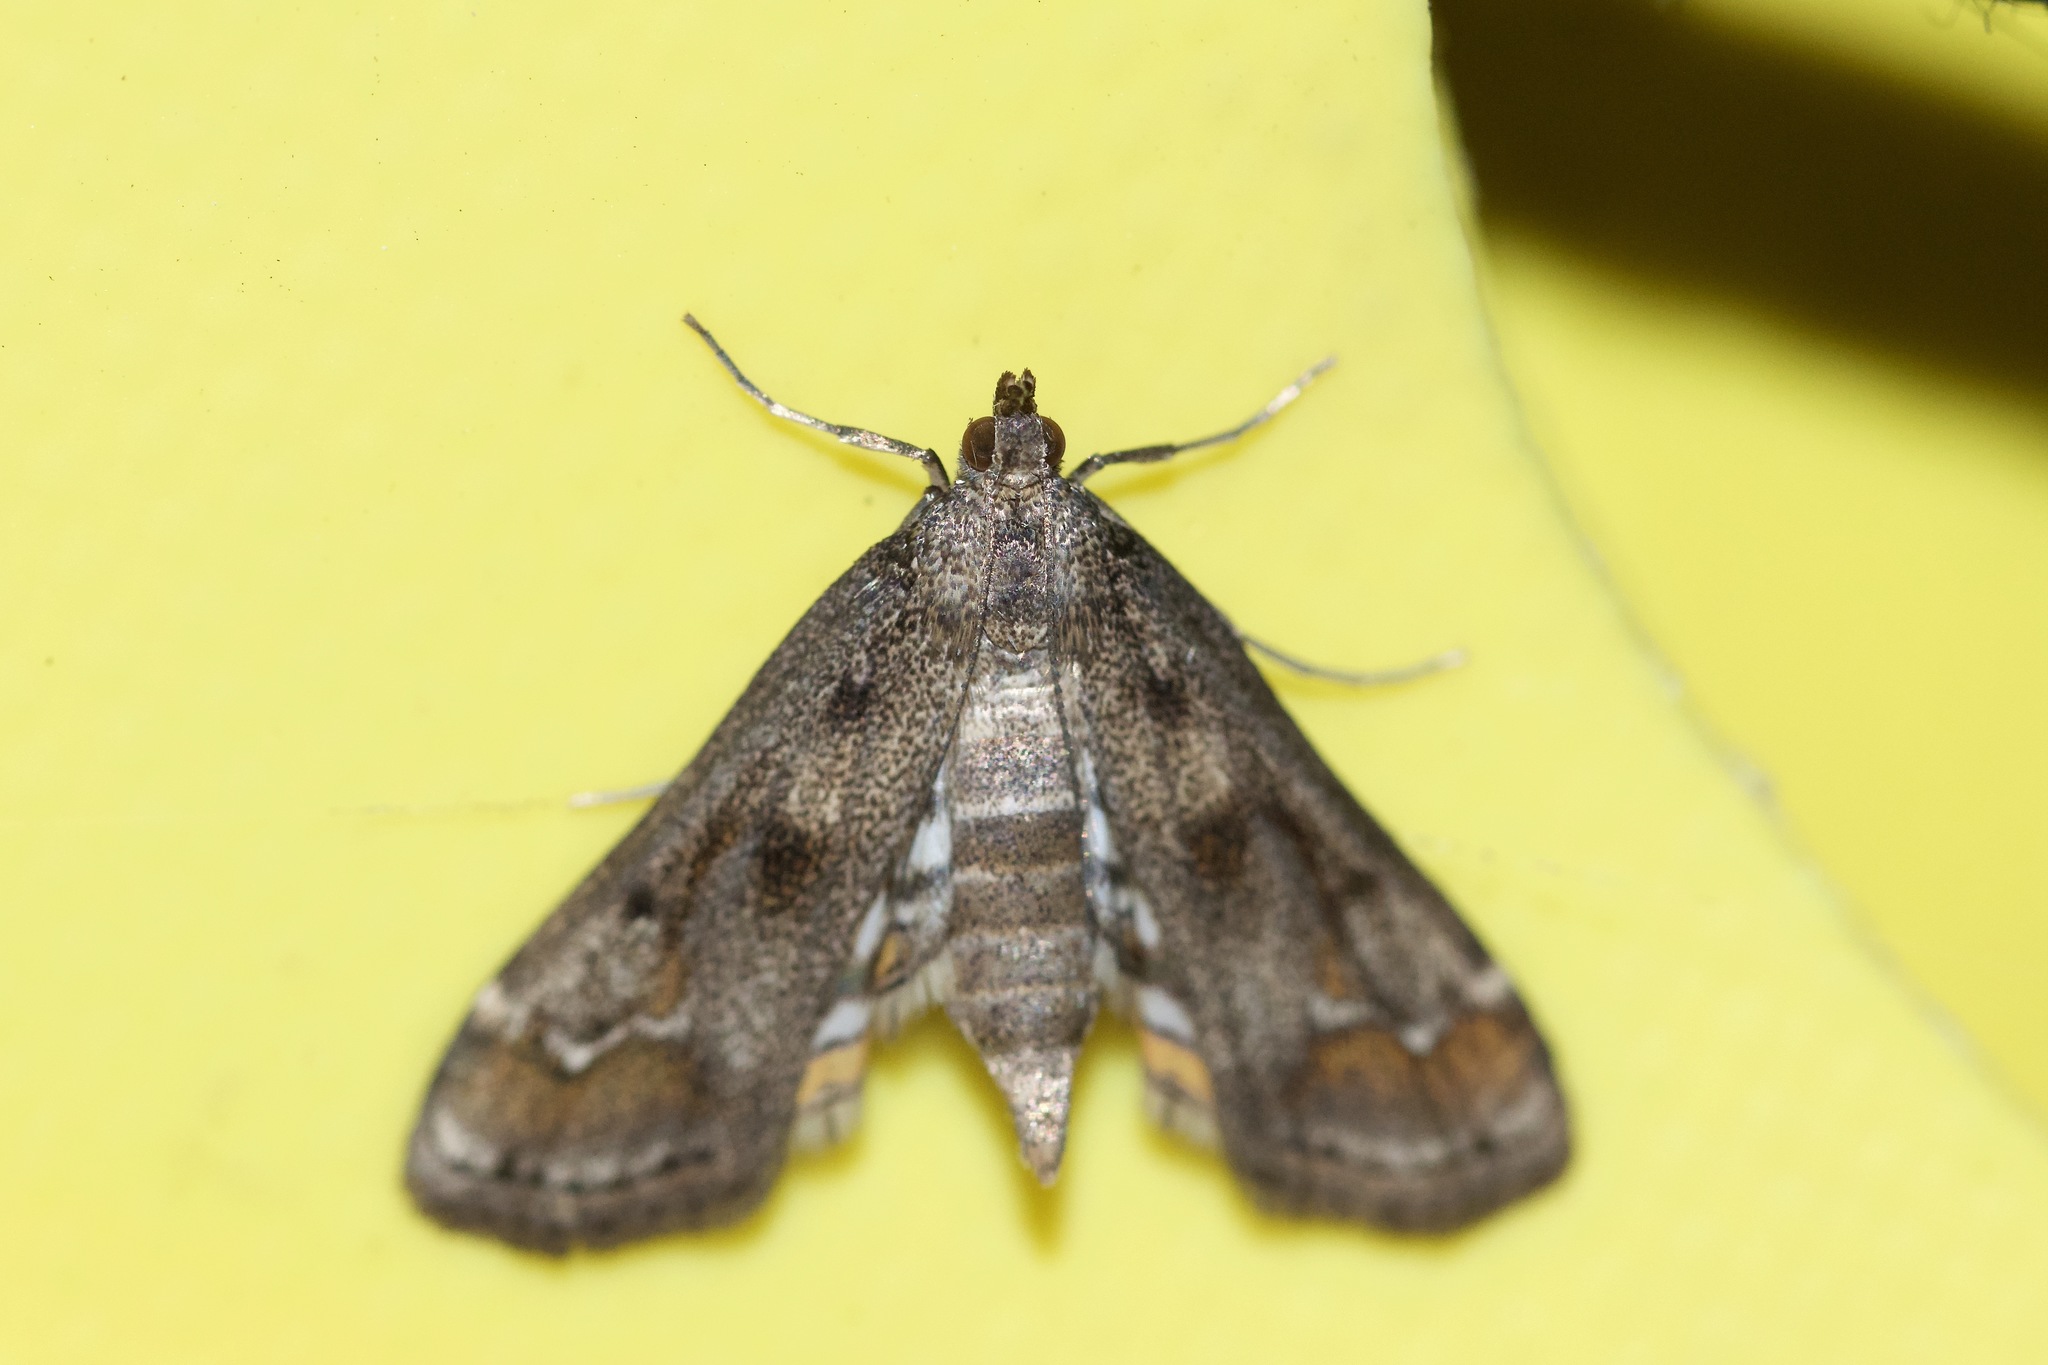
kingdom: Animalia
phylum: Arthropoda
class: Insecta
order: Lepidoptera
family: Crambidae
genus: Parapoynx
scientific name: Parapoynx obscuralis
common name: American china-mark
